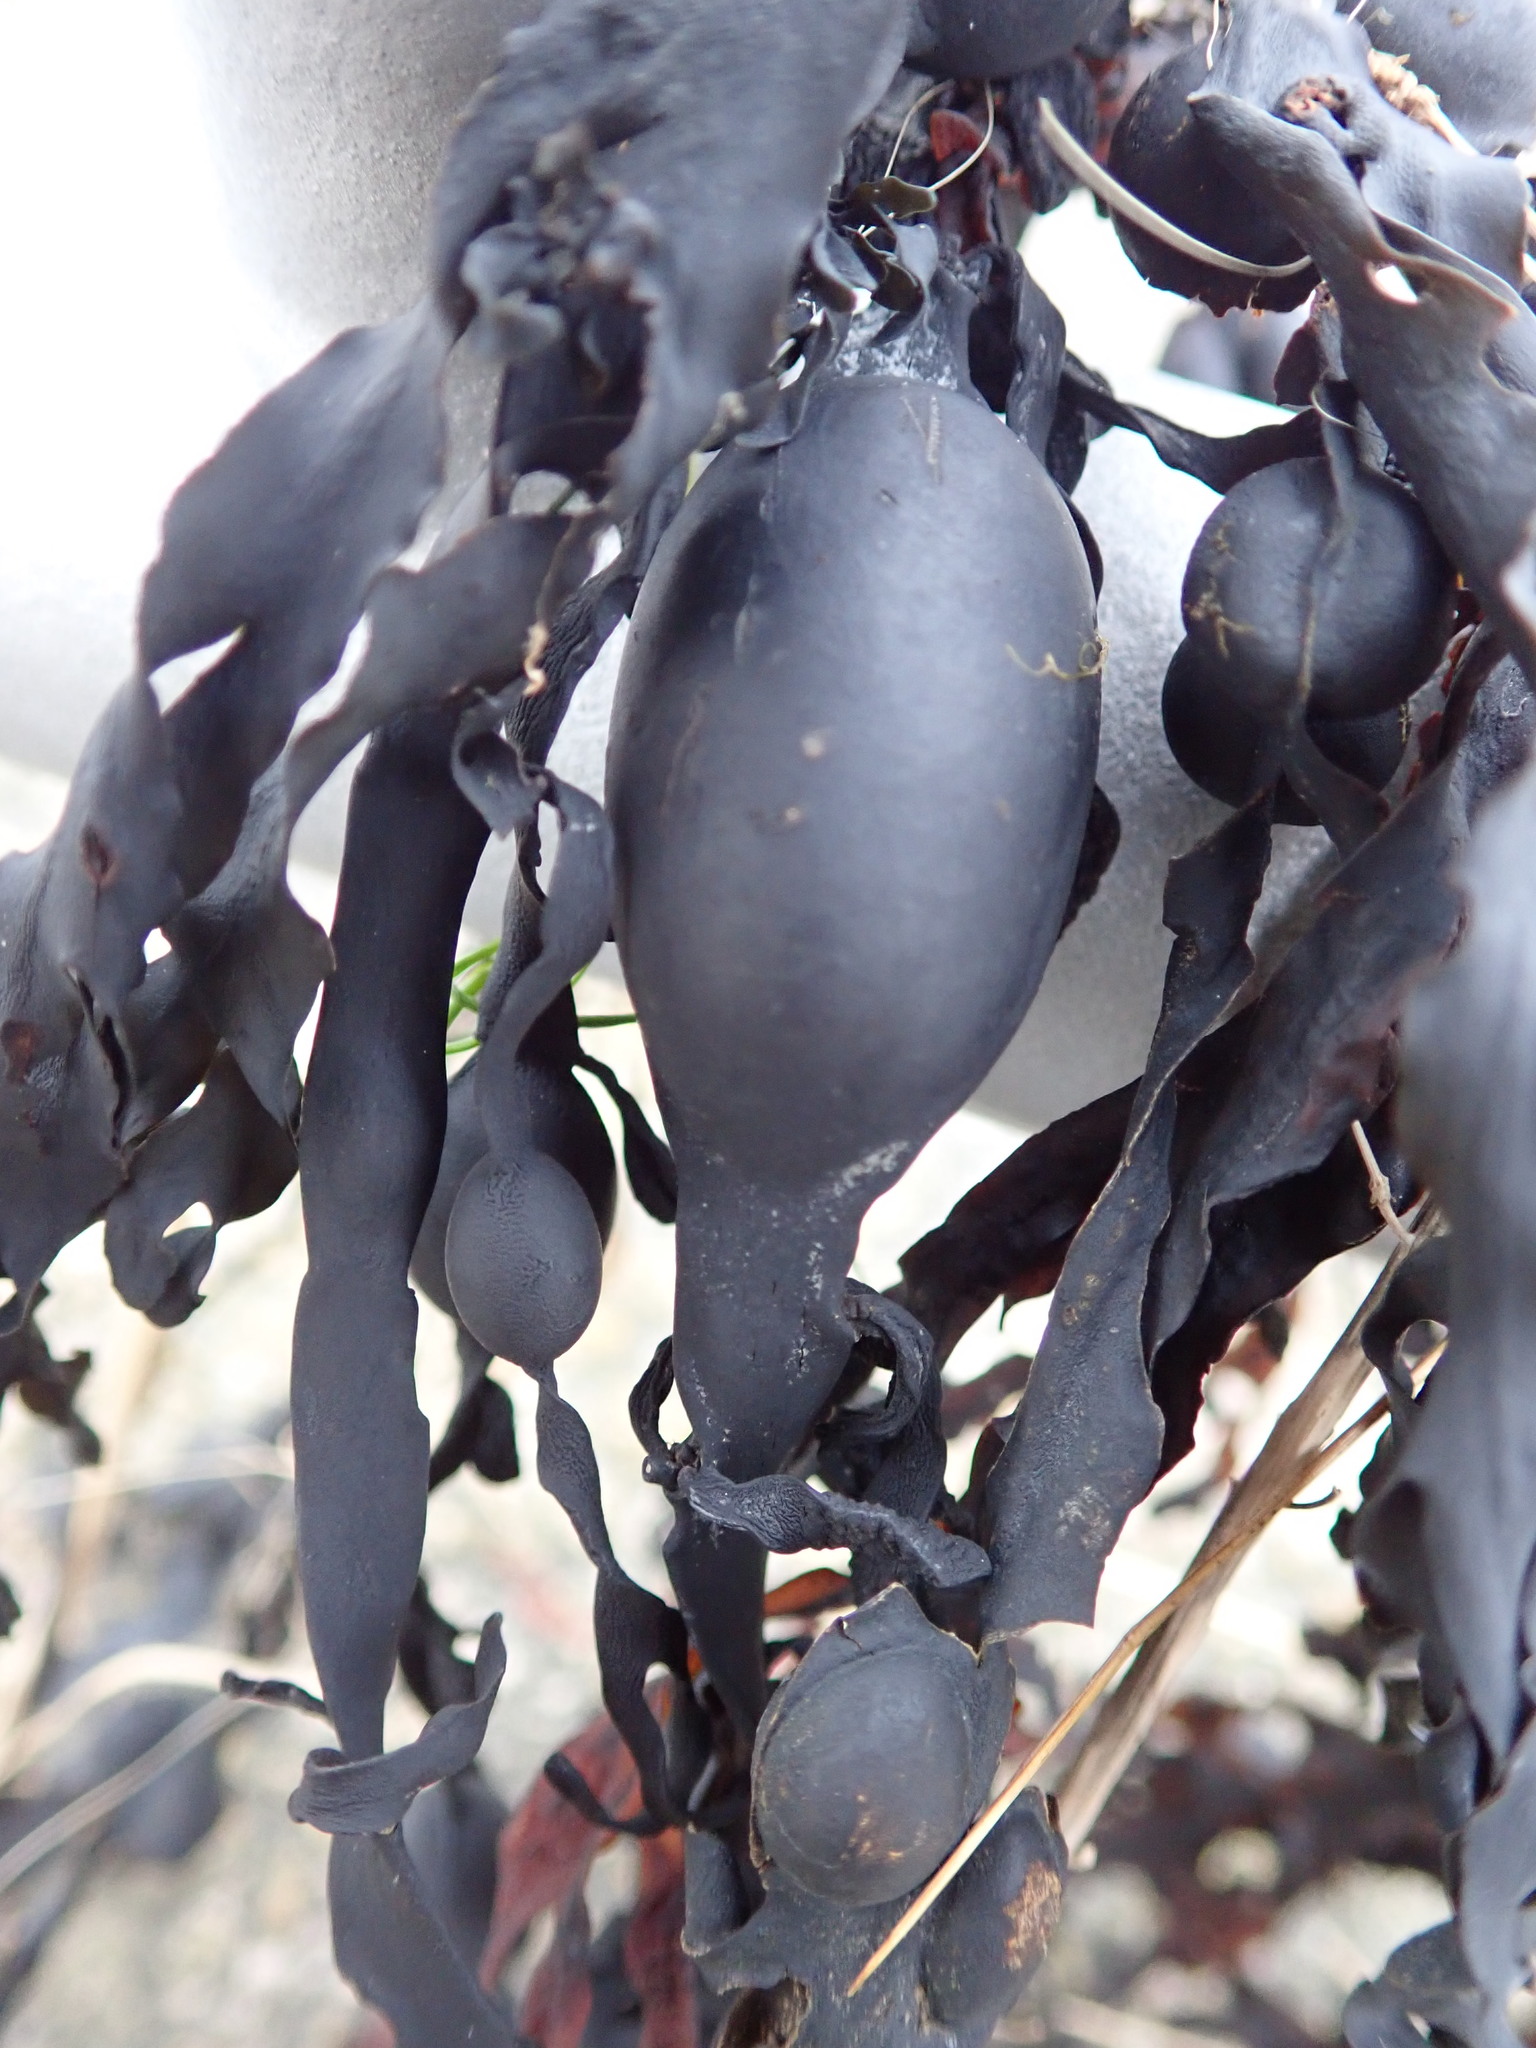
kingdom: Chromista
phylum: Ochrophyta
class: Phaeophyceae
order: Fucales
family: Fucaceae
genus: Ascophyllum
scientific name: Ascophyllum nodosum
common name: Knotted wrack
